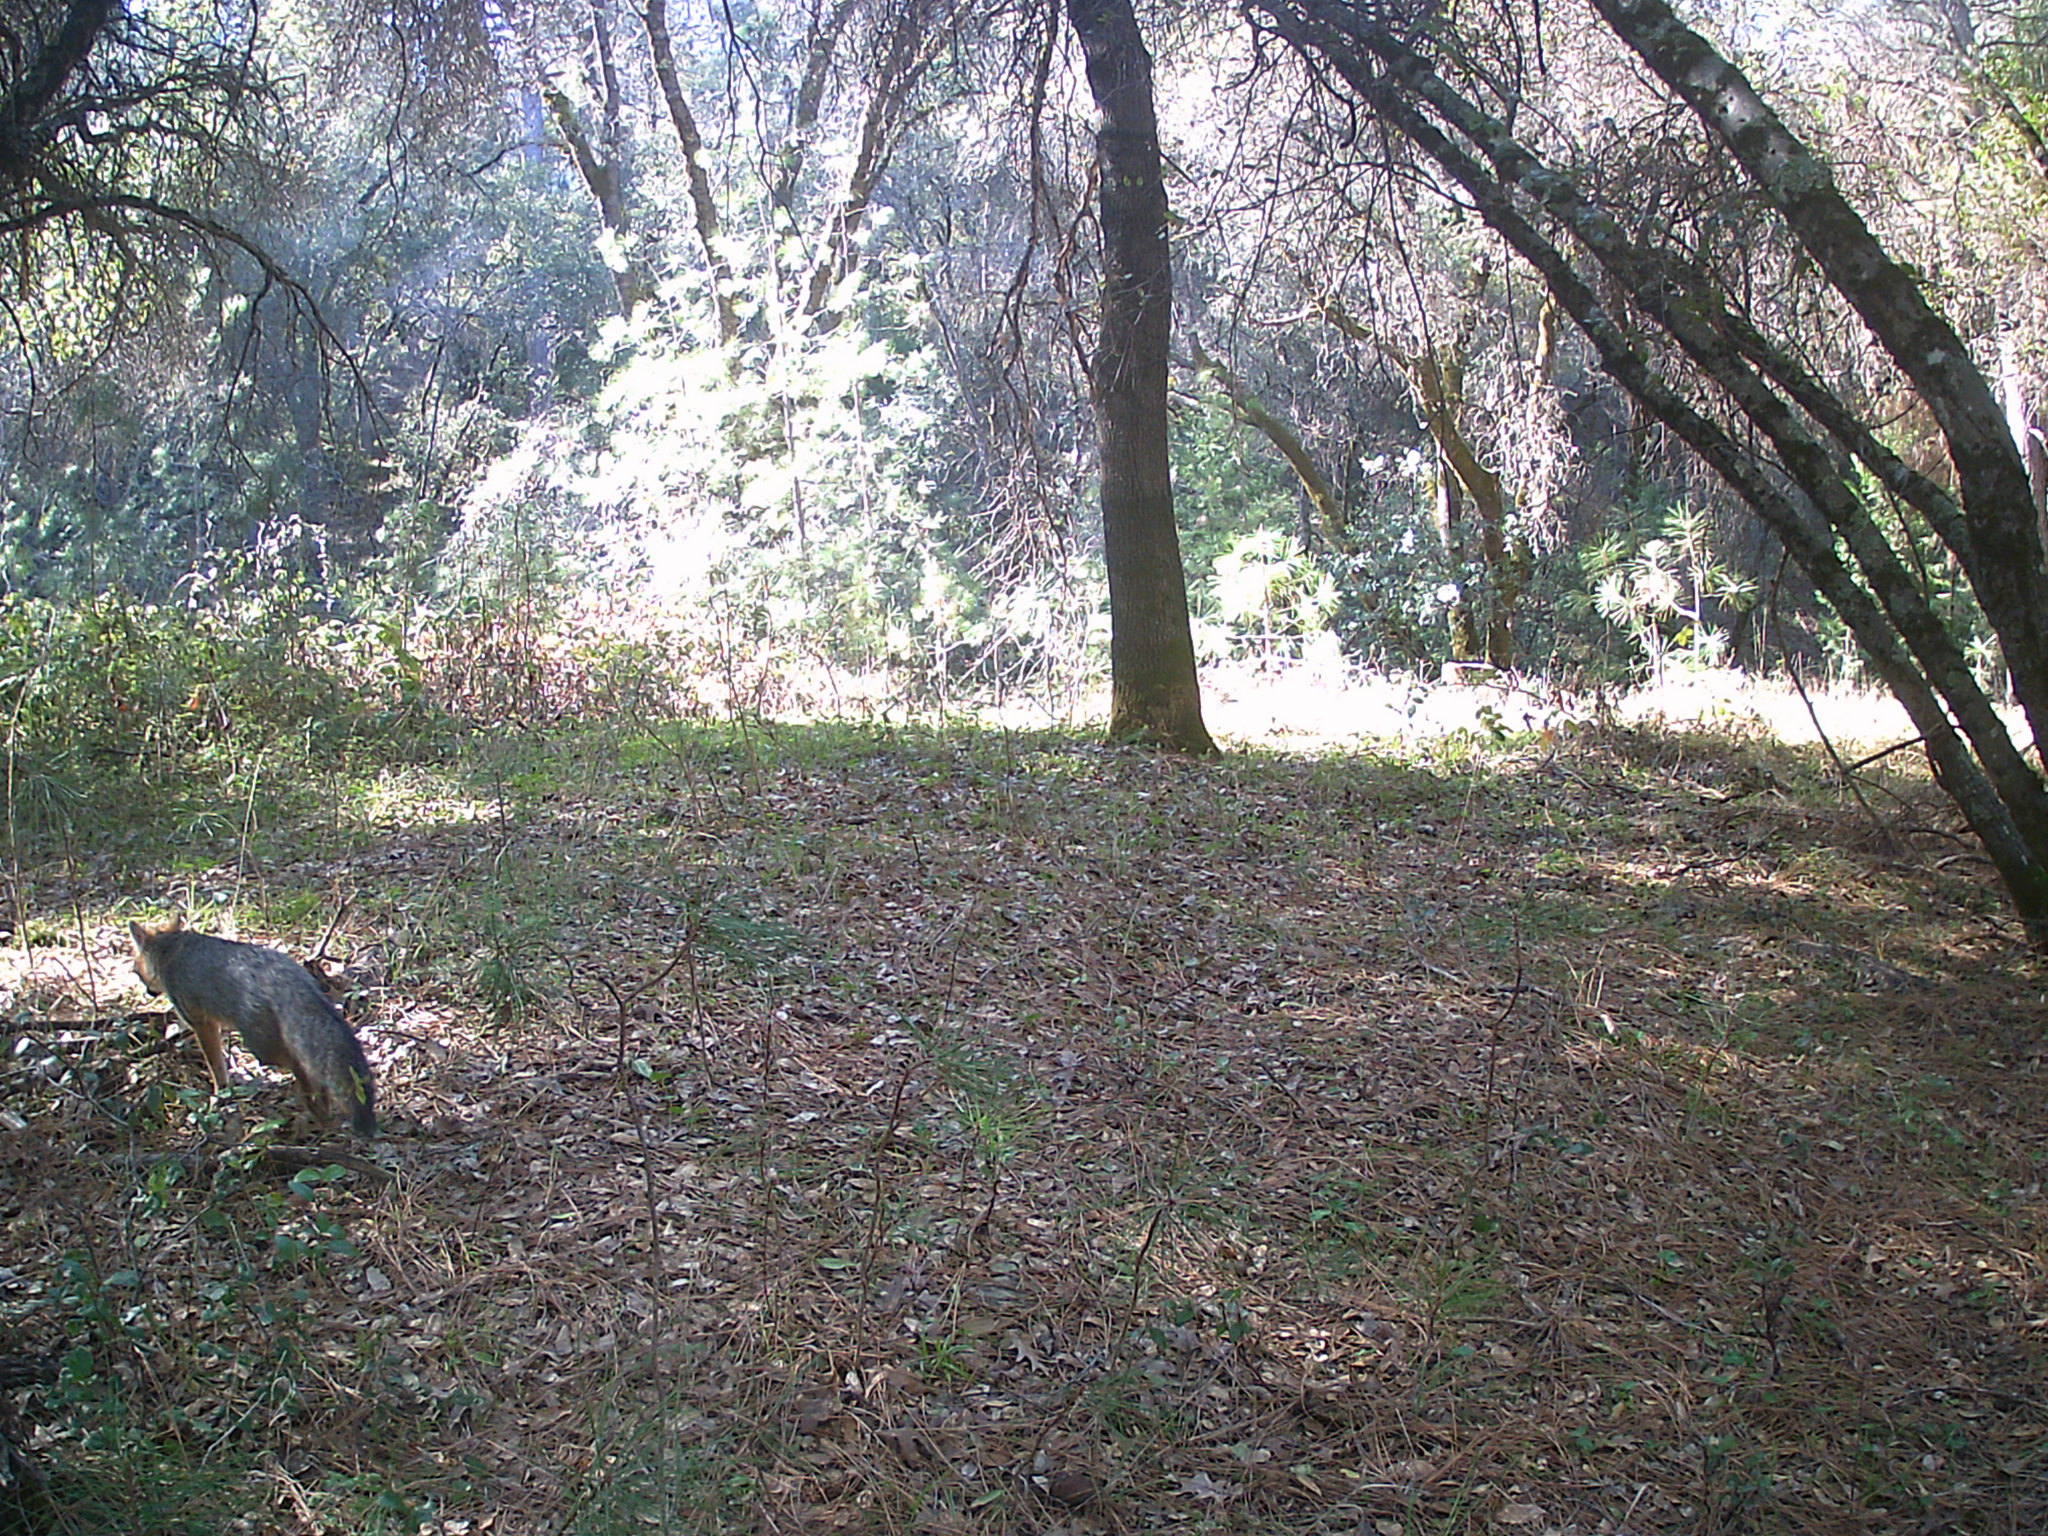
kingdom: Animalia
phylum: Chordata
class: Mammalia
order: Carnivora
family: Canidae
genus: Urocyon
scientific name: Urocyon cinereoargenteus
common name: Gray fox
